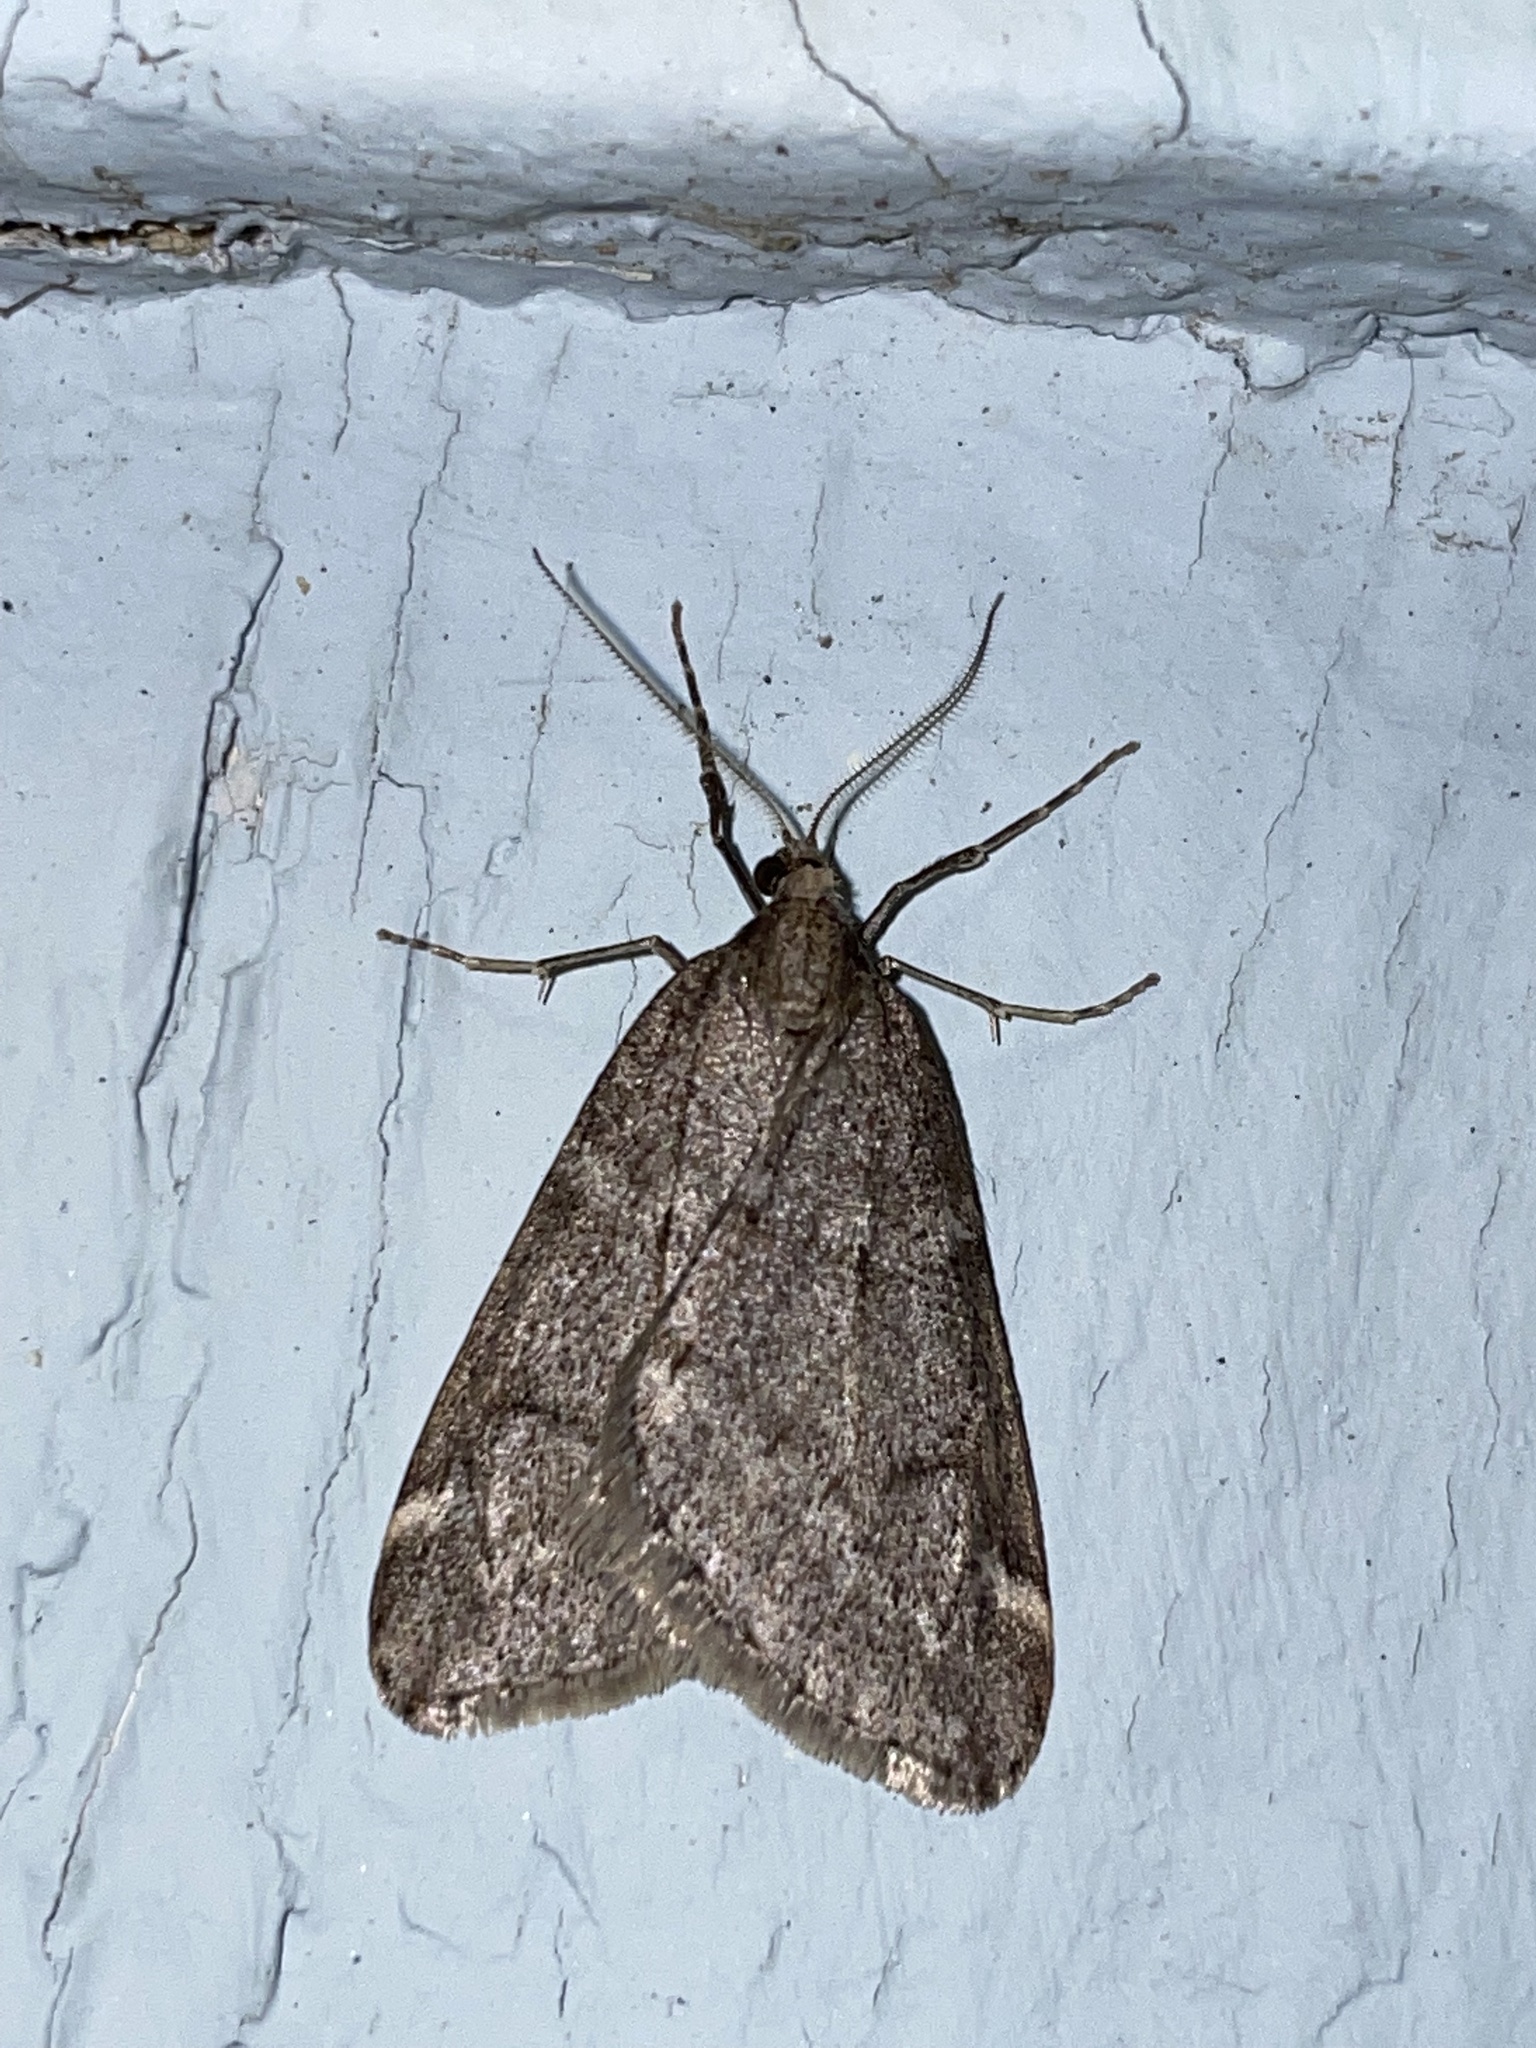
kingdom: Animalia
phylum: Arthropoda
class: Insecta
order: Lepidoptera
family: Geometridae
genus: Alsophila
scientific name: Alsophila pometaria
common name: Fall cankerworm
